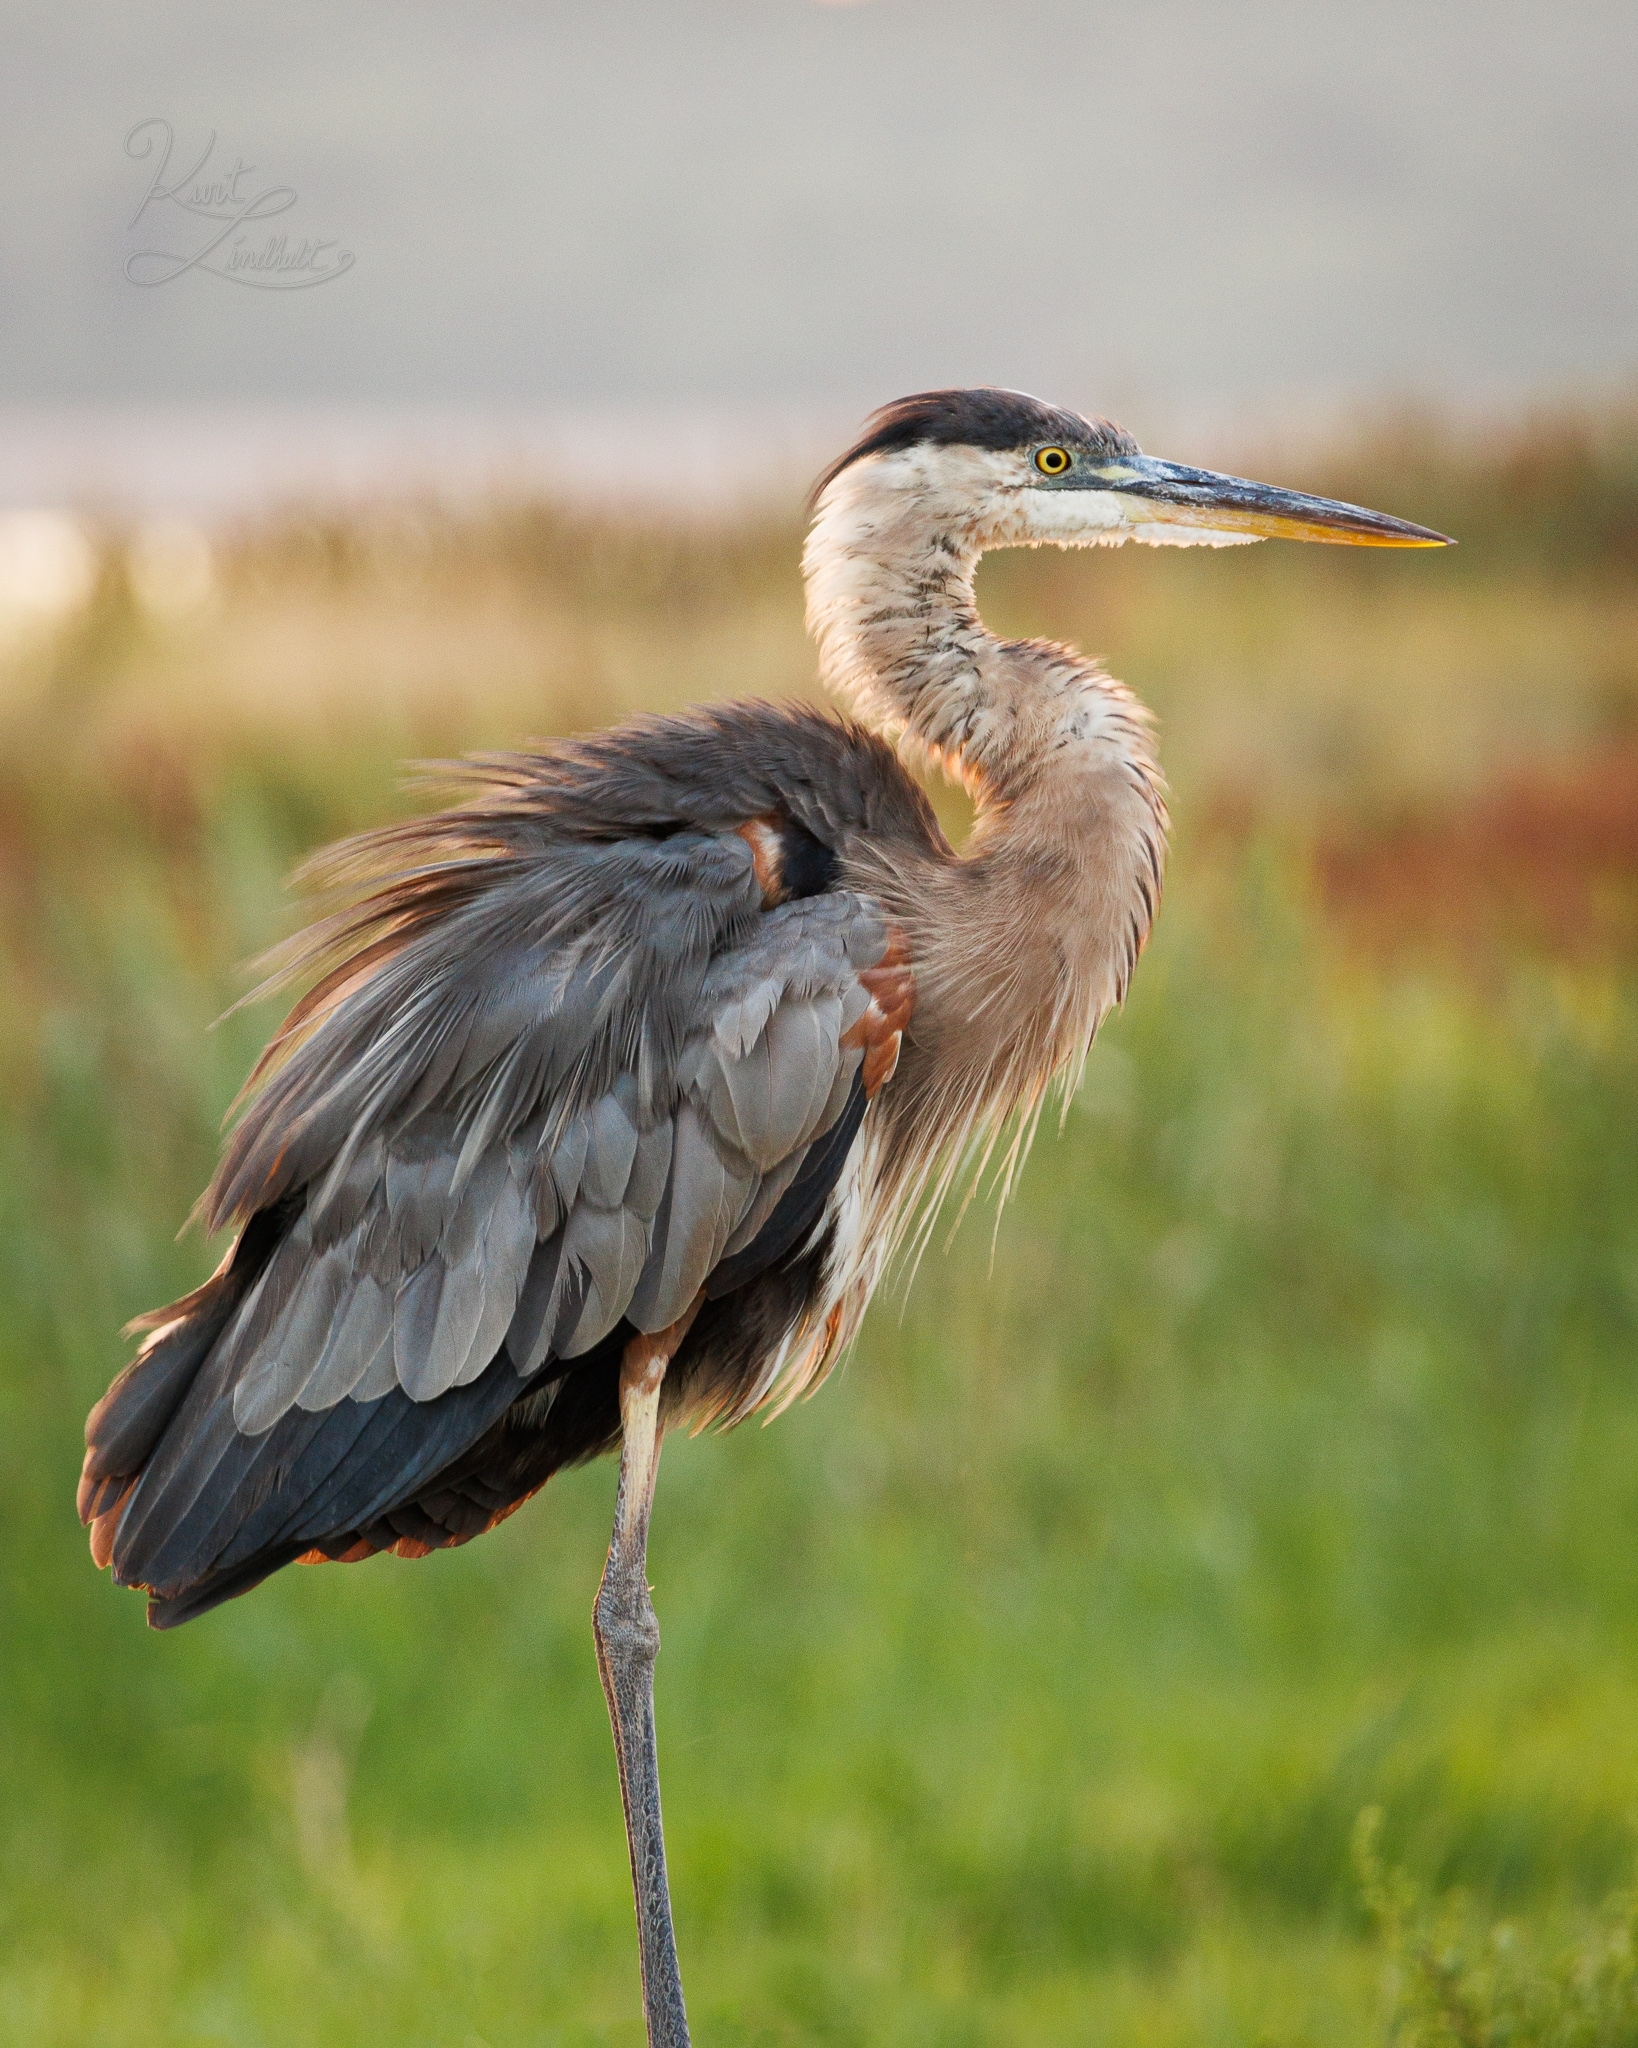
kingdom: Animalia
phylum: Chordata
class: Aves
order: Pelecaniformes
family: Ardeidae
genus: Ardea
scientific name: Ardea herodias
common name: Great blue heron
